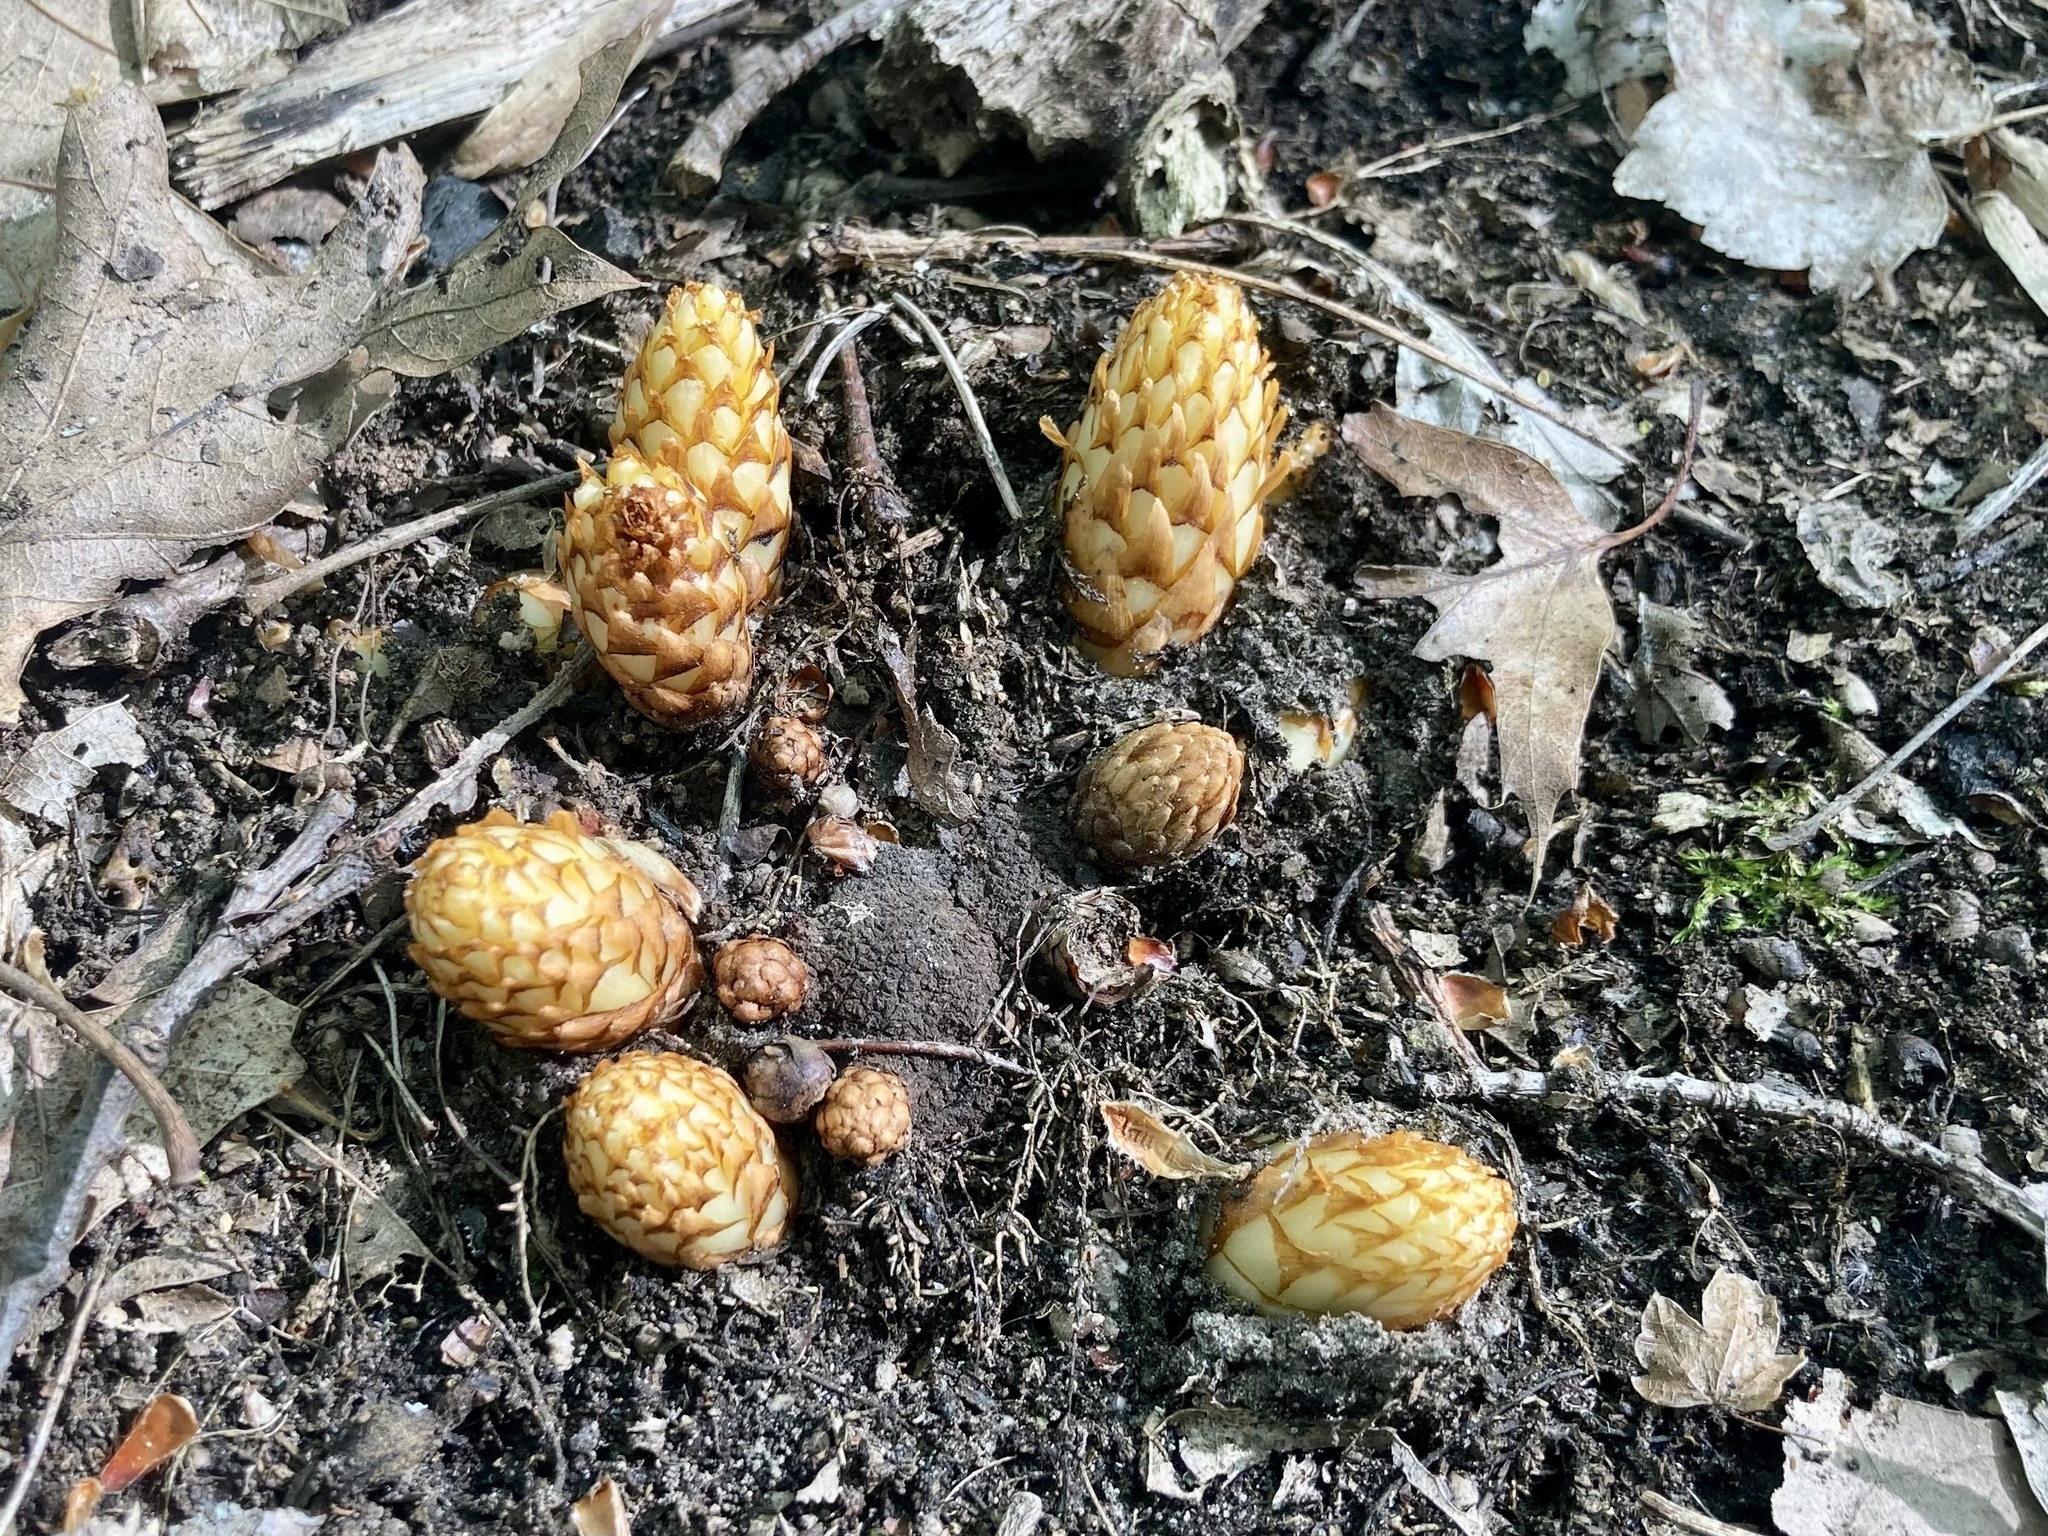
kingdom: Plantae
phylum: Tracheophyta
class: Magnoliopsida
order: Lamiales
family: Orobanchaceae
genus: Conopholis
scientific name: Conopholis americana
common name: American cancer-root
